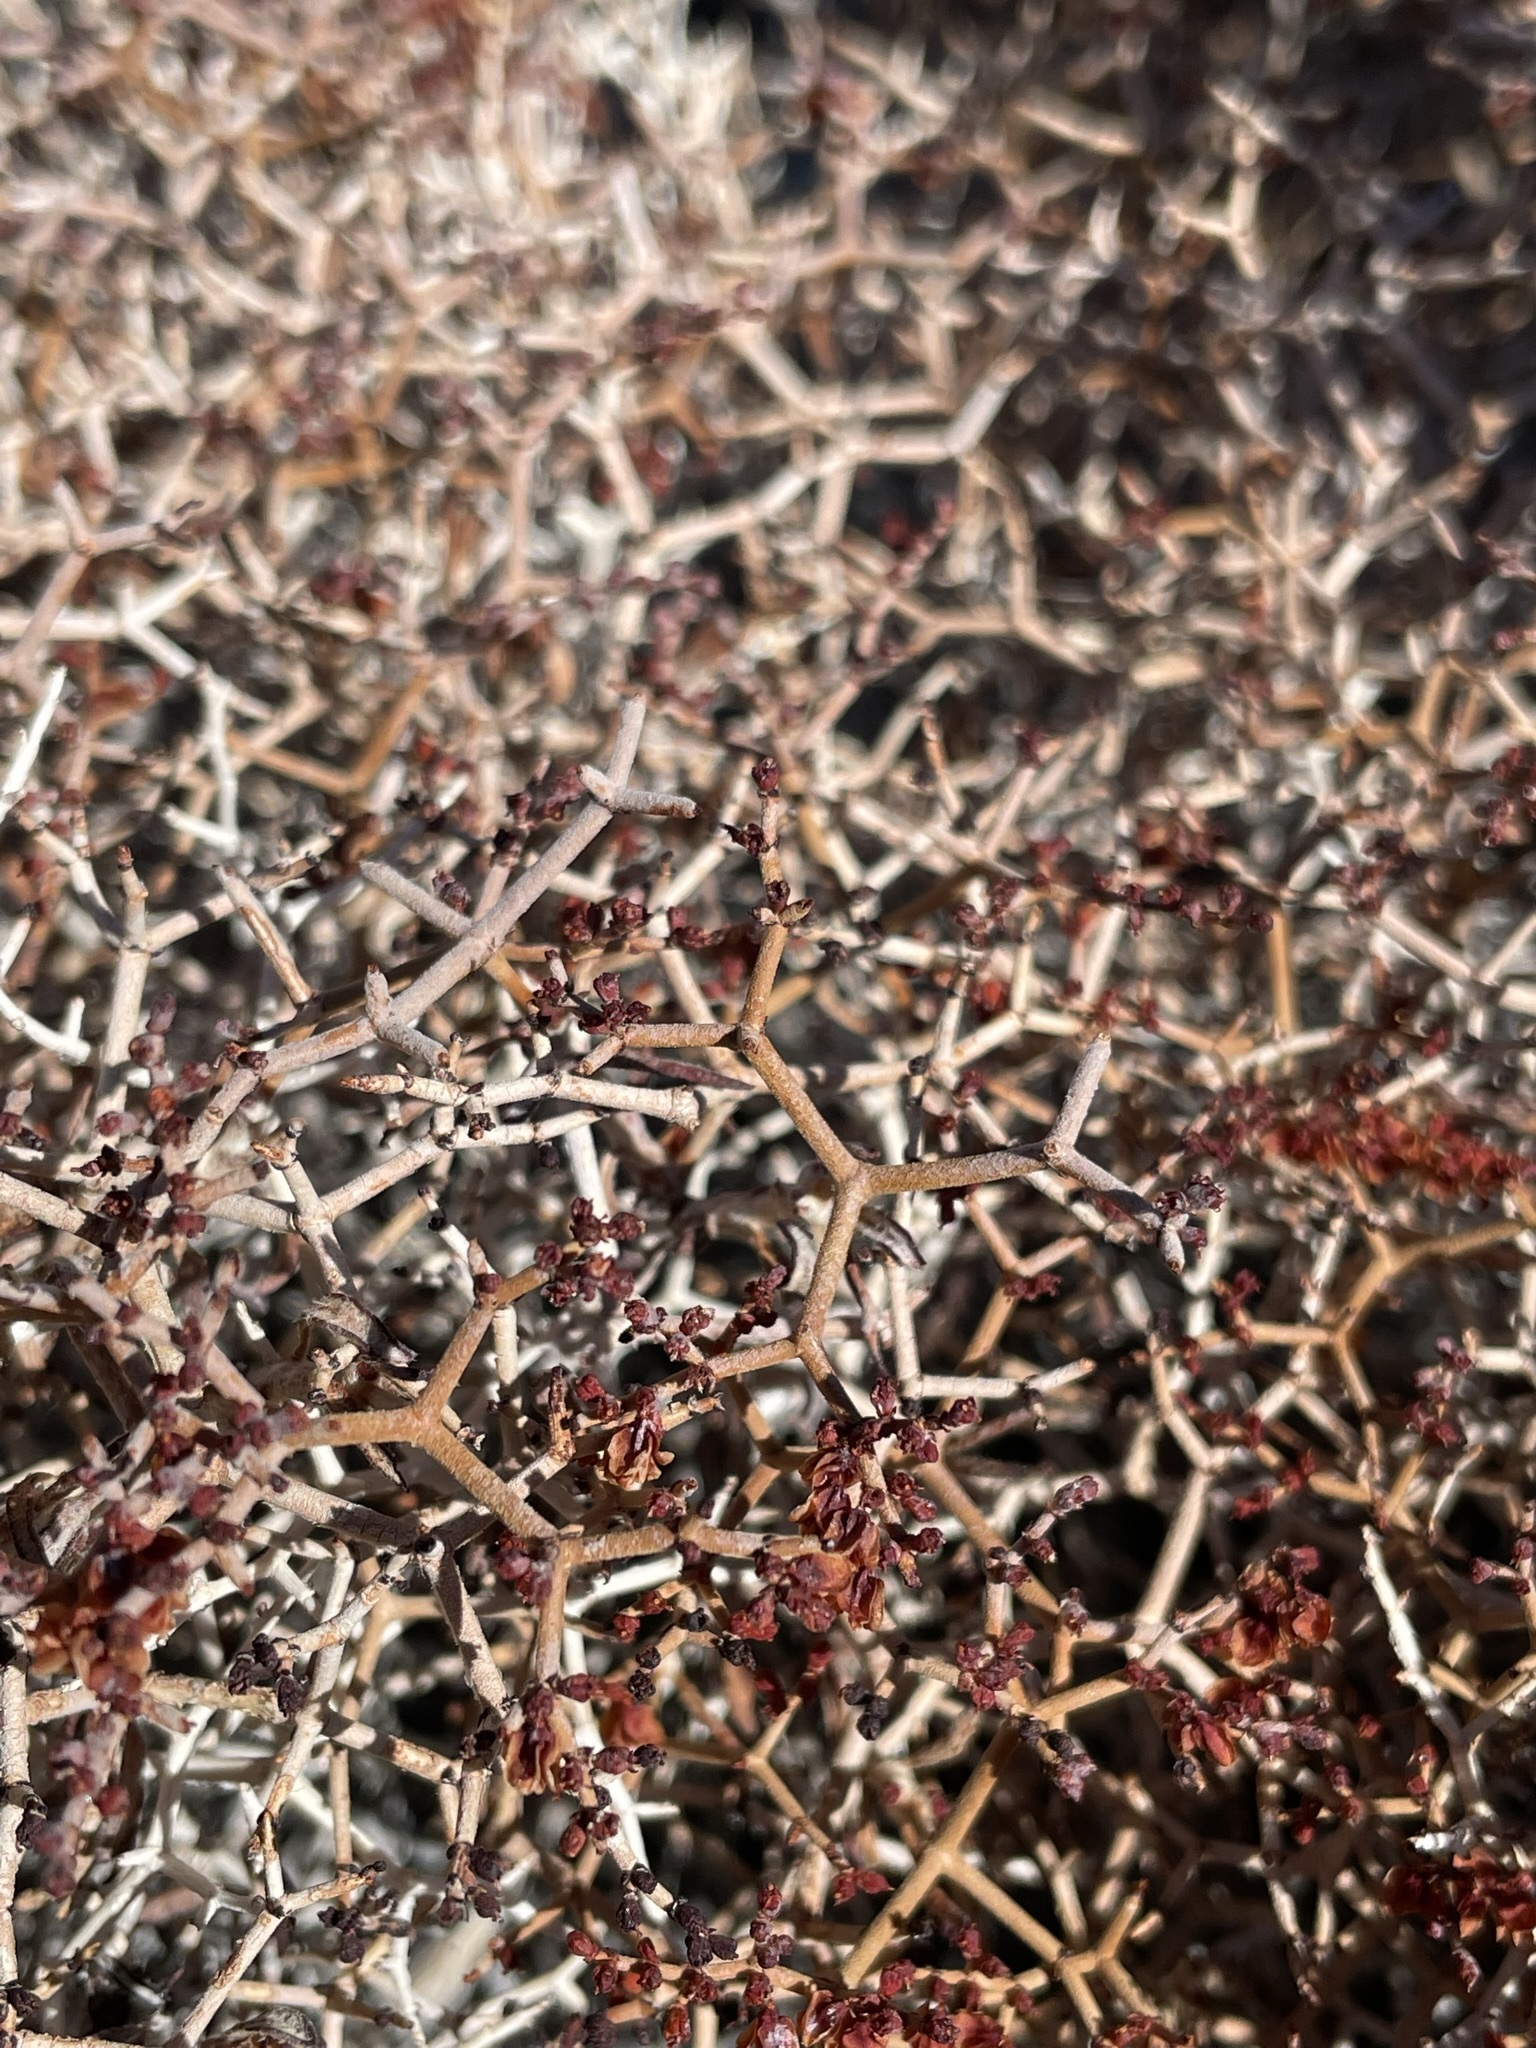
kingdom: Plantae
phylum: Tracheophyta
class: Magnoliopsida
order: Caryophyllales
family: Polygonaceae
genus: Eriogonum
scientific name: Eriogonum heermannii
